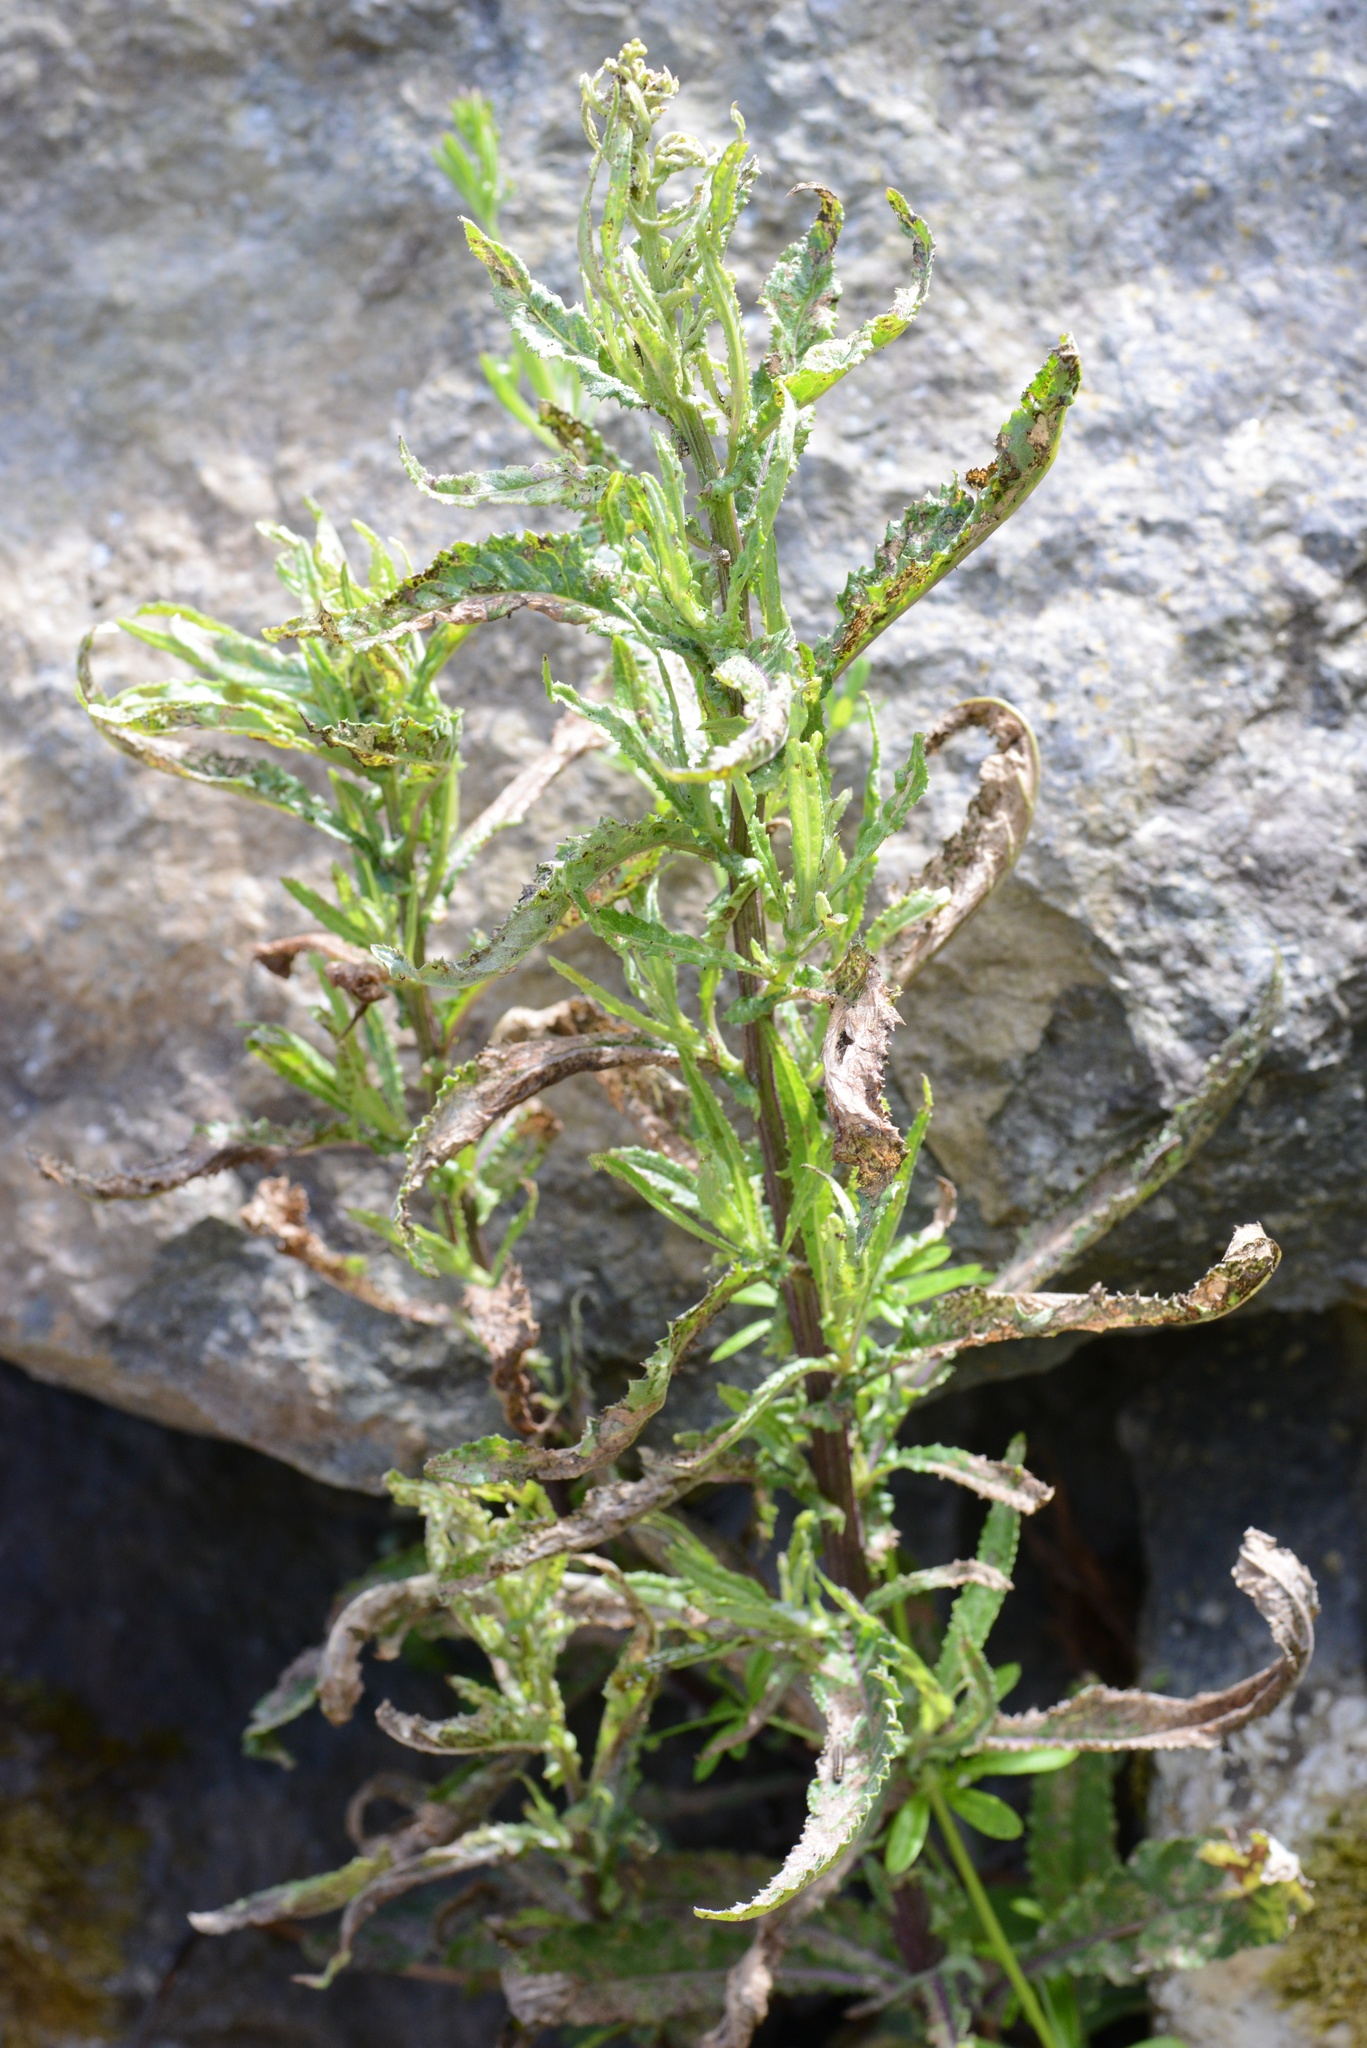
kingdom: Plantae
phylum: Tracheophyta
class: Magnoliopsida
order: Asterales
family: Asteraceae
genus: Senecio
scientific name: Senecio minimus
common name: Toothed fireweed
